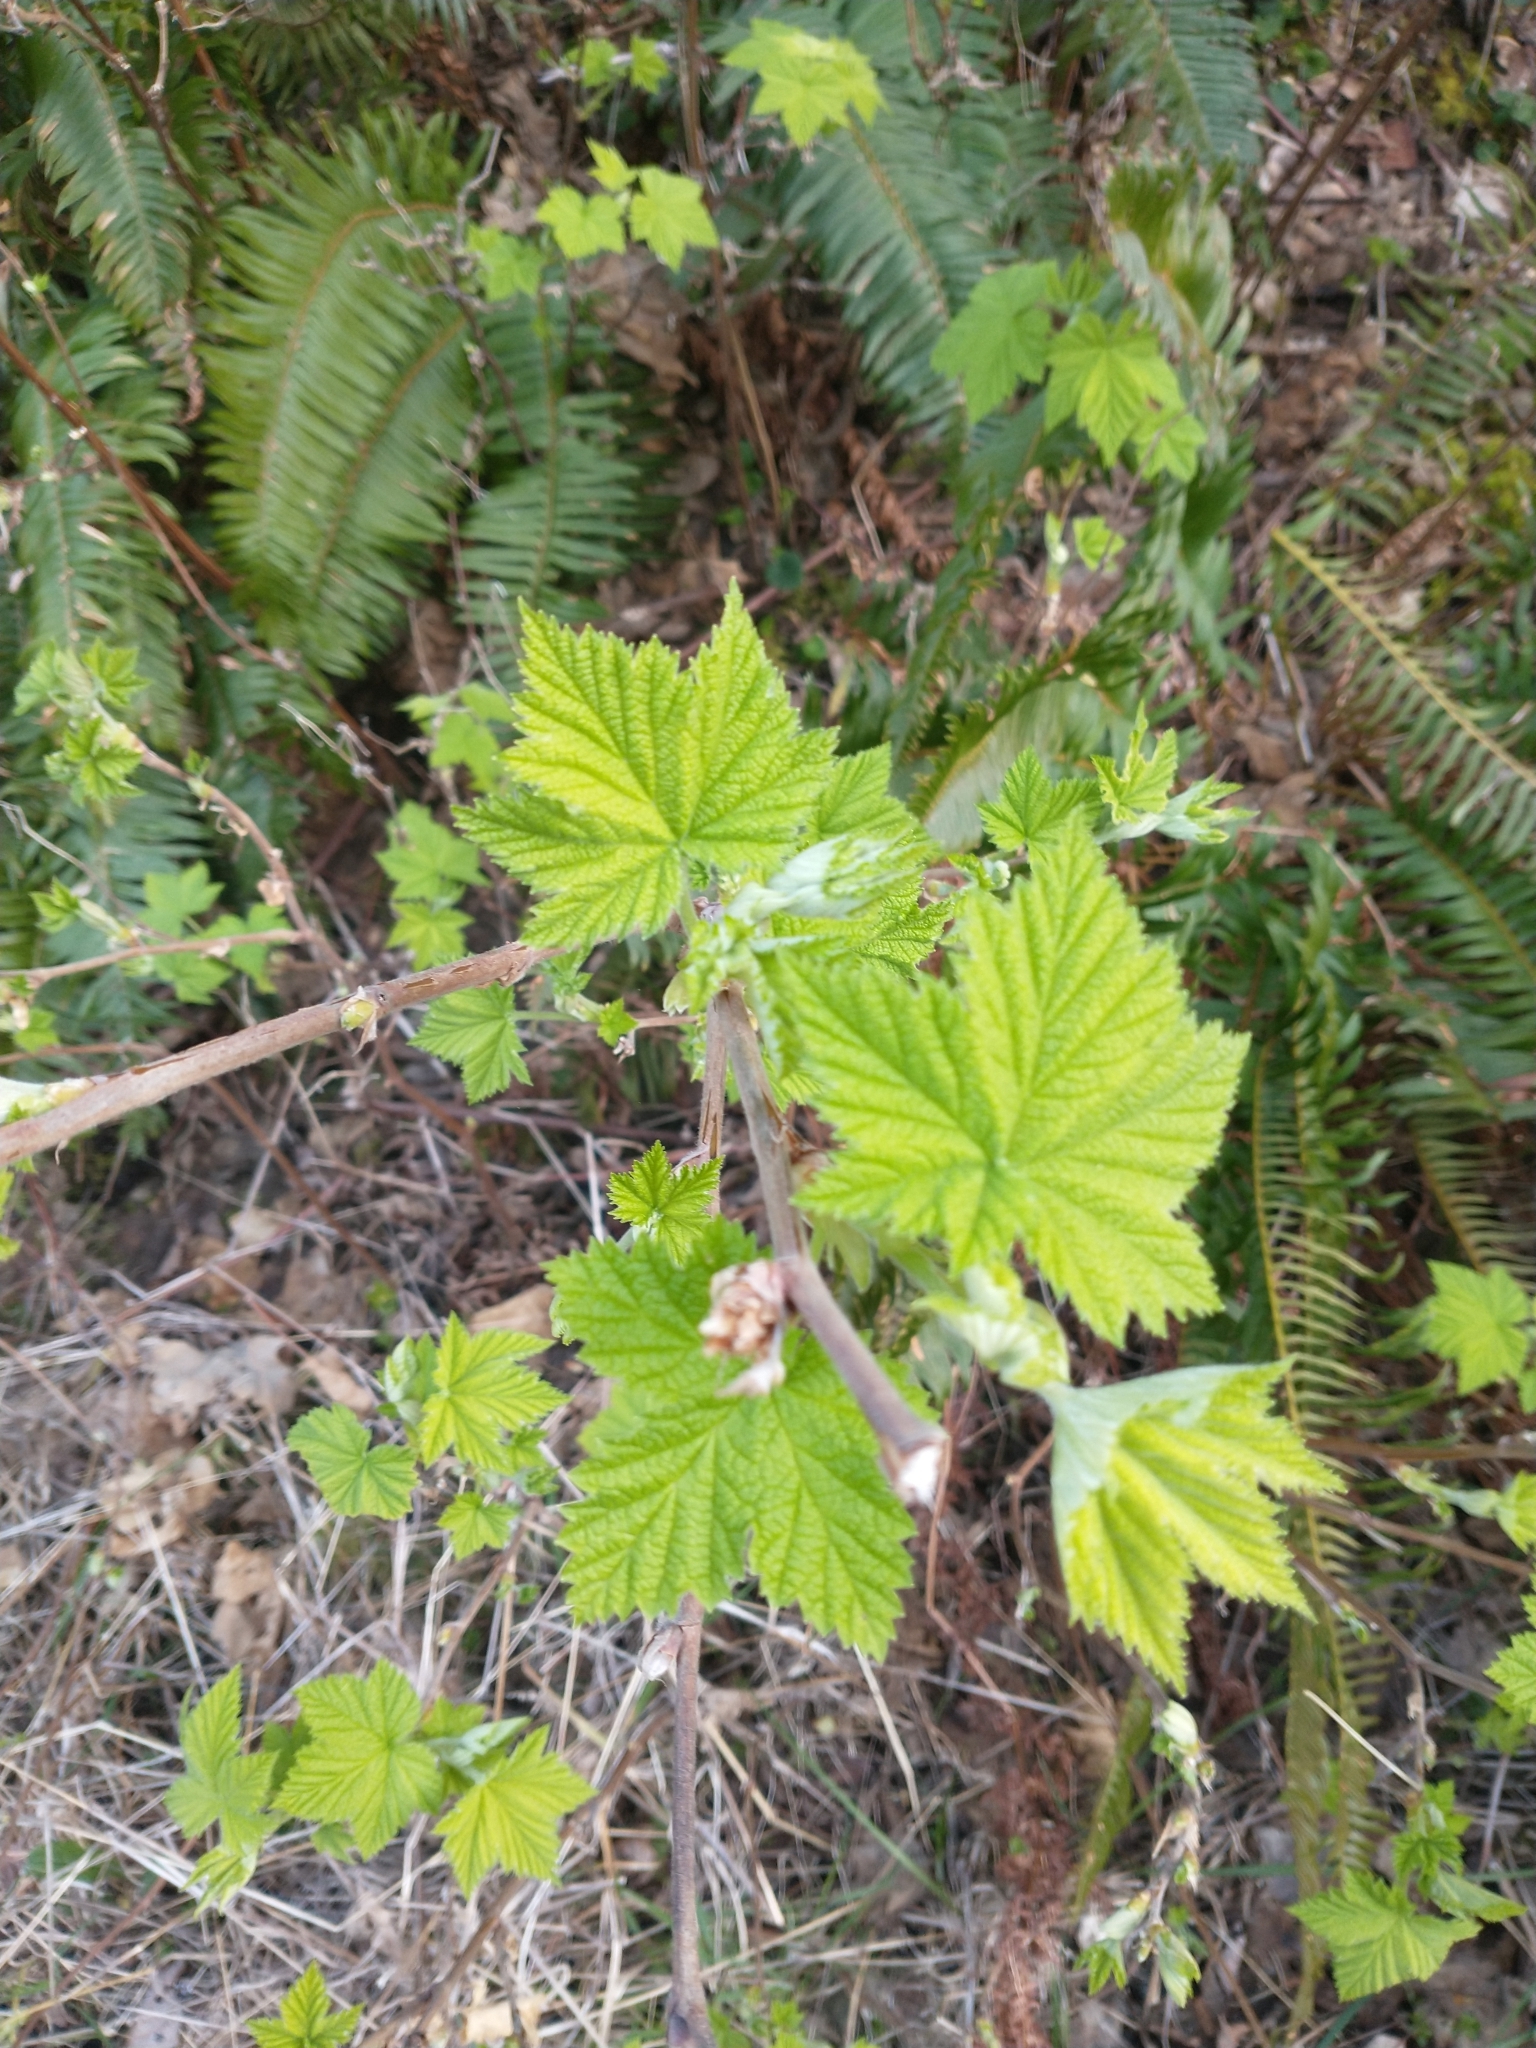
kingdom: Plantae
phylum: Tracheophyta
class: Magnoliopsida
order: Rosales
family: Rosaceae
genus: Rubus
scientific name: Rubus parviflorus
